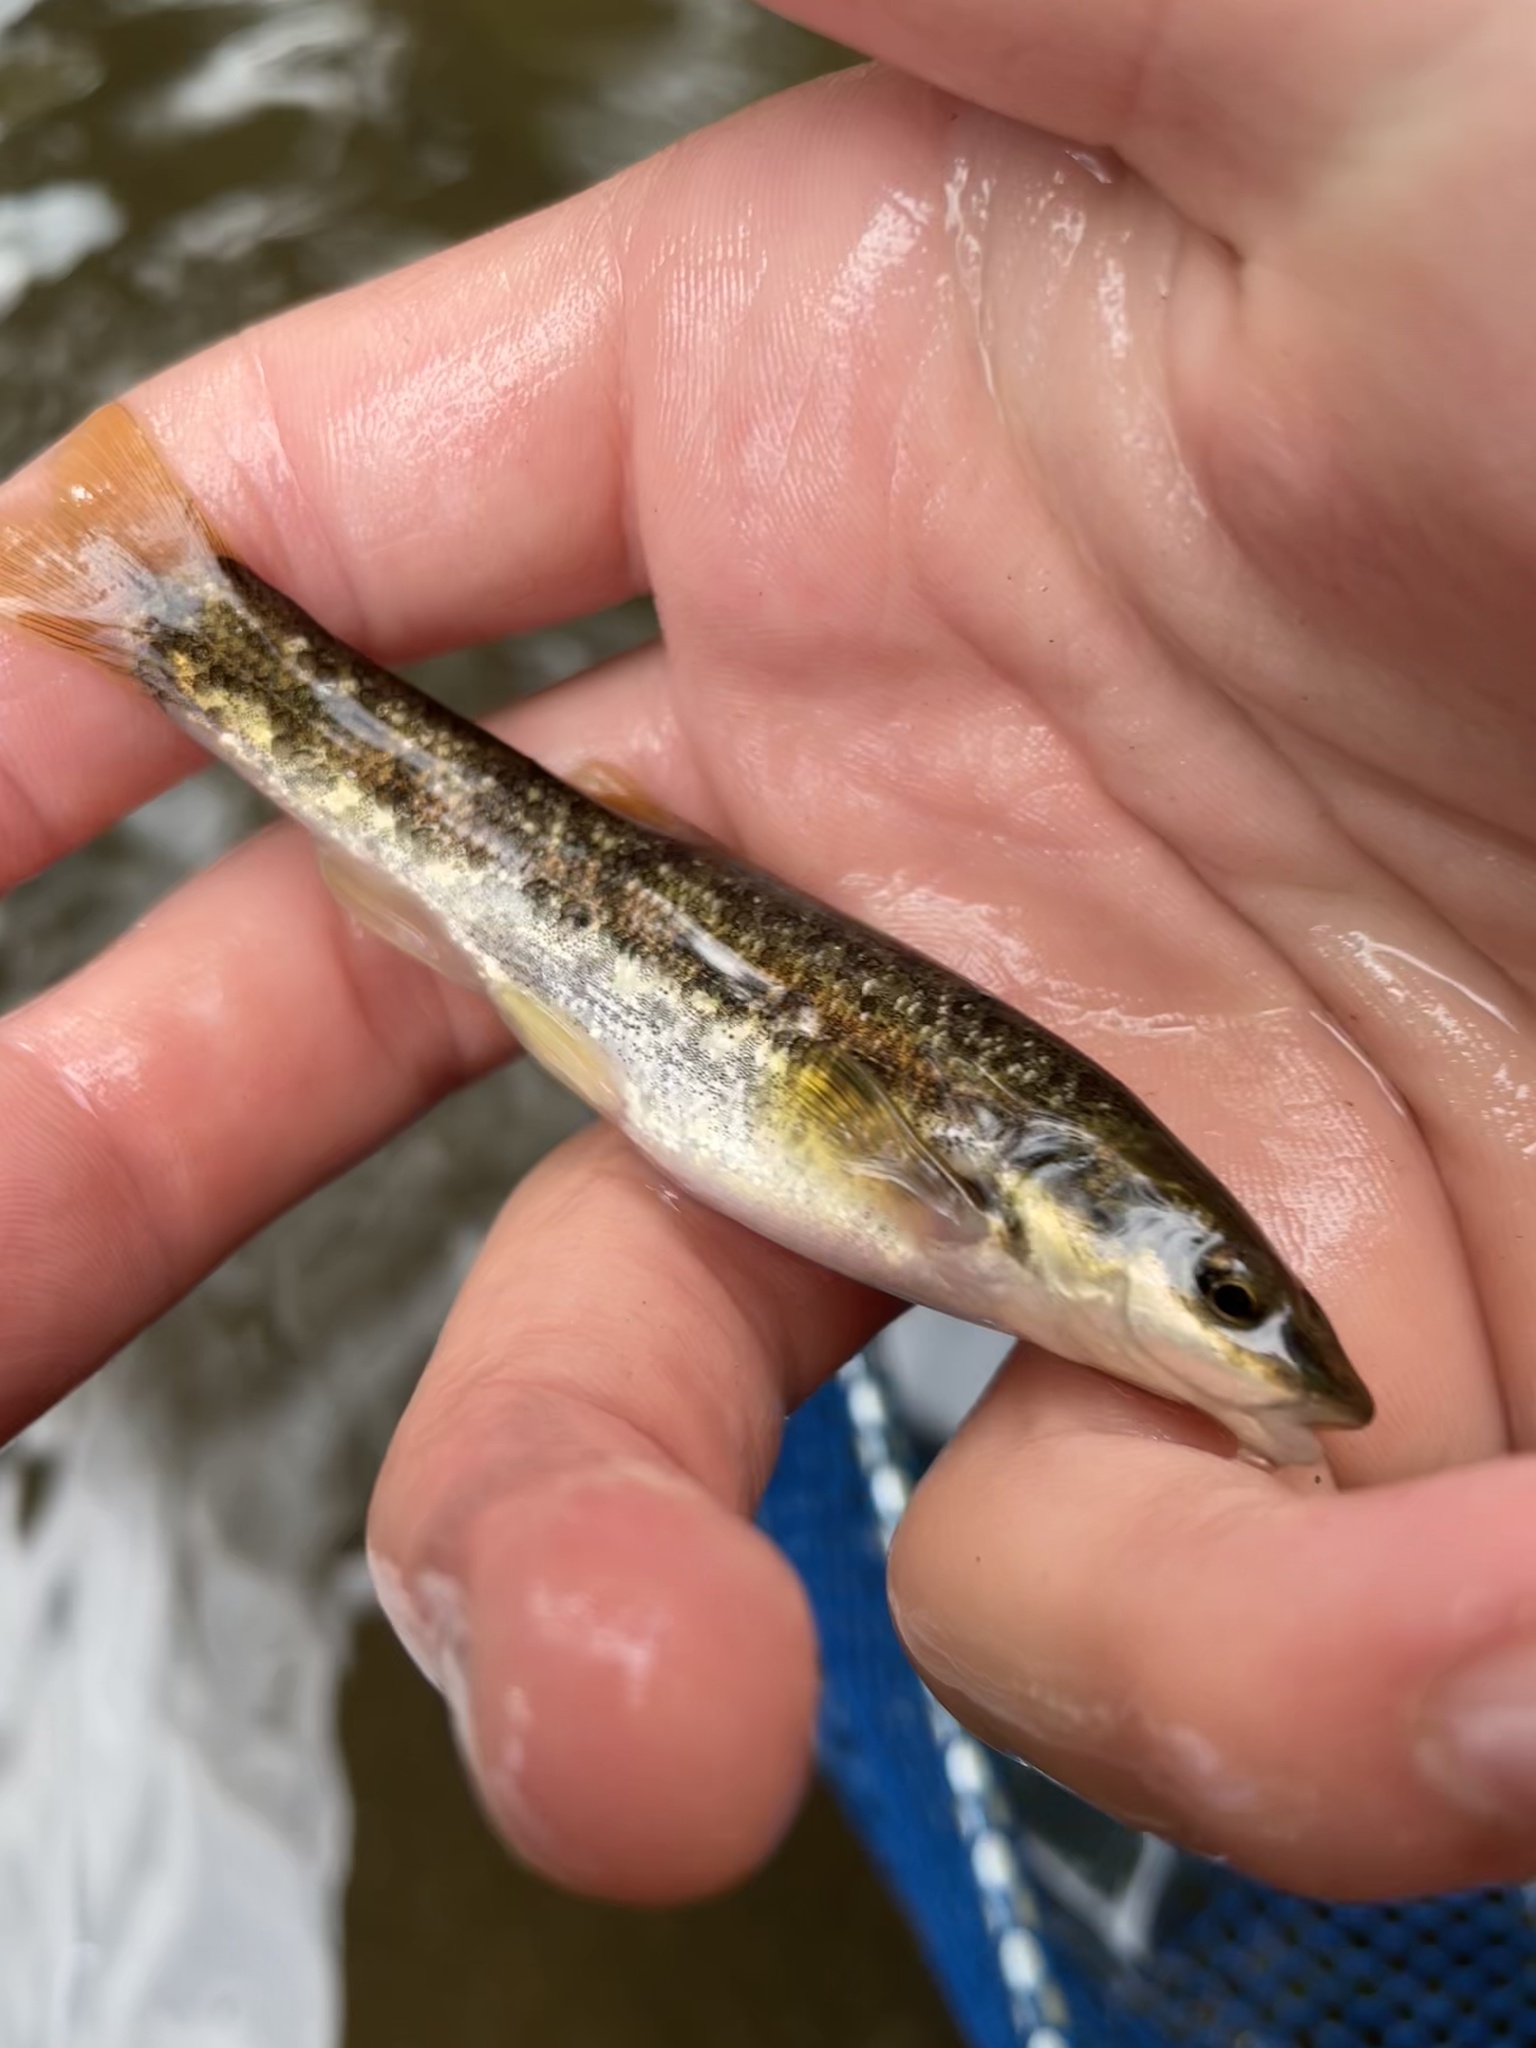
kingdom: Animalia
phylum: Chordata
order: Cypriniformes
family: Cyprinidae
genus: Rhinichthys
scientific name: Rhinichthys obtusus
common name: Western blacknose dace
